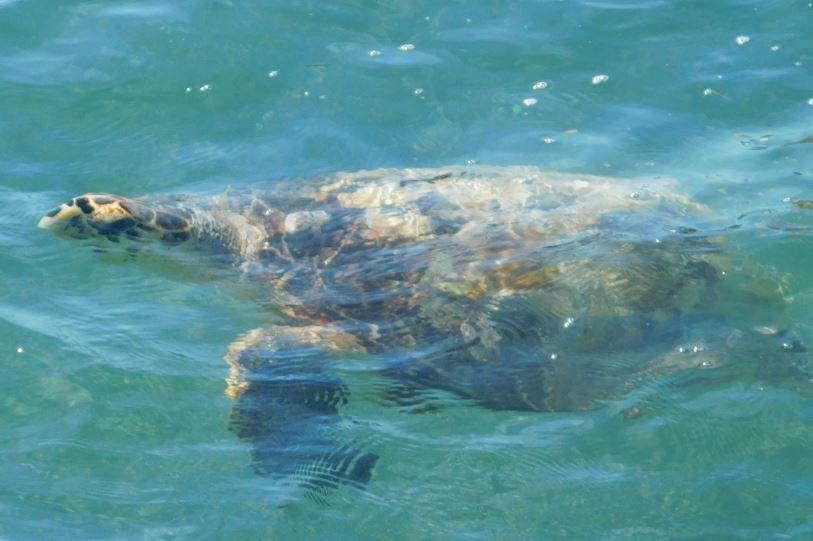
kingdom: Animalia
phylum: Chordata
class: Testudines
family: Cheloniidae
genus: Eretmochelys
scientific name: Eretmochelys imbricata
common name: Hawksbill turtle
